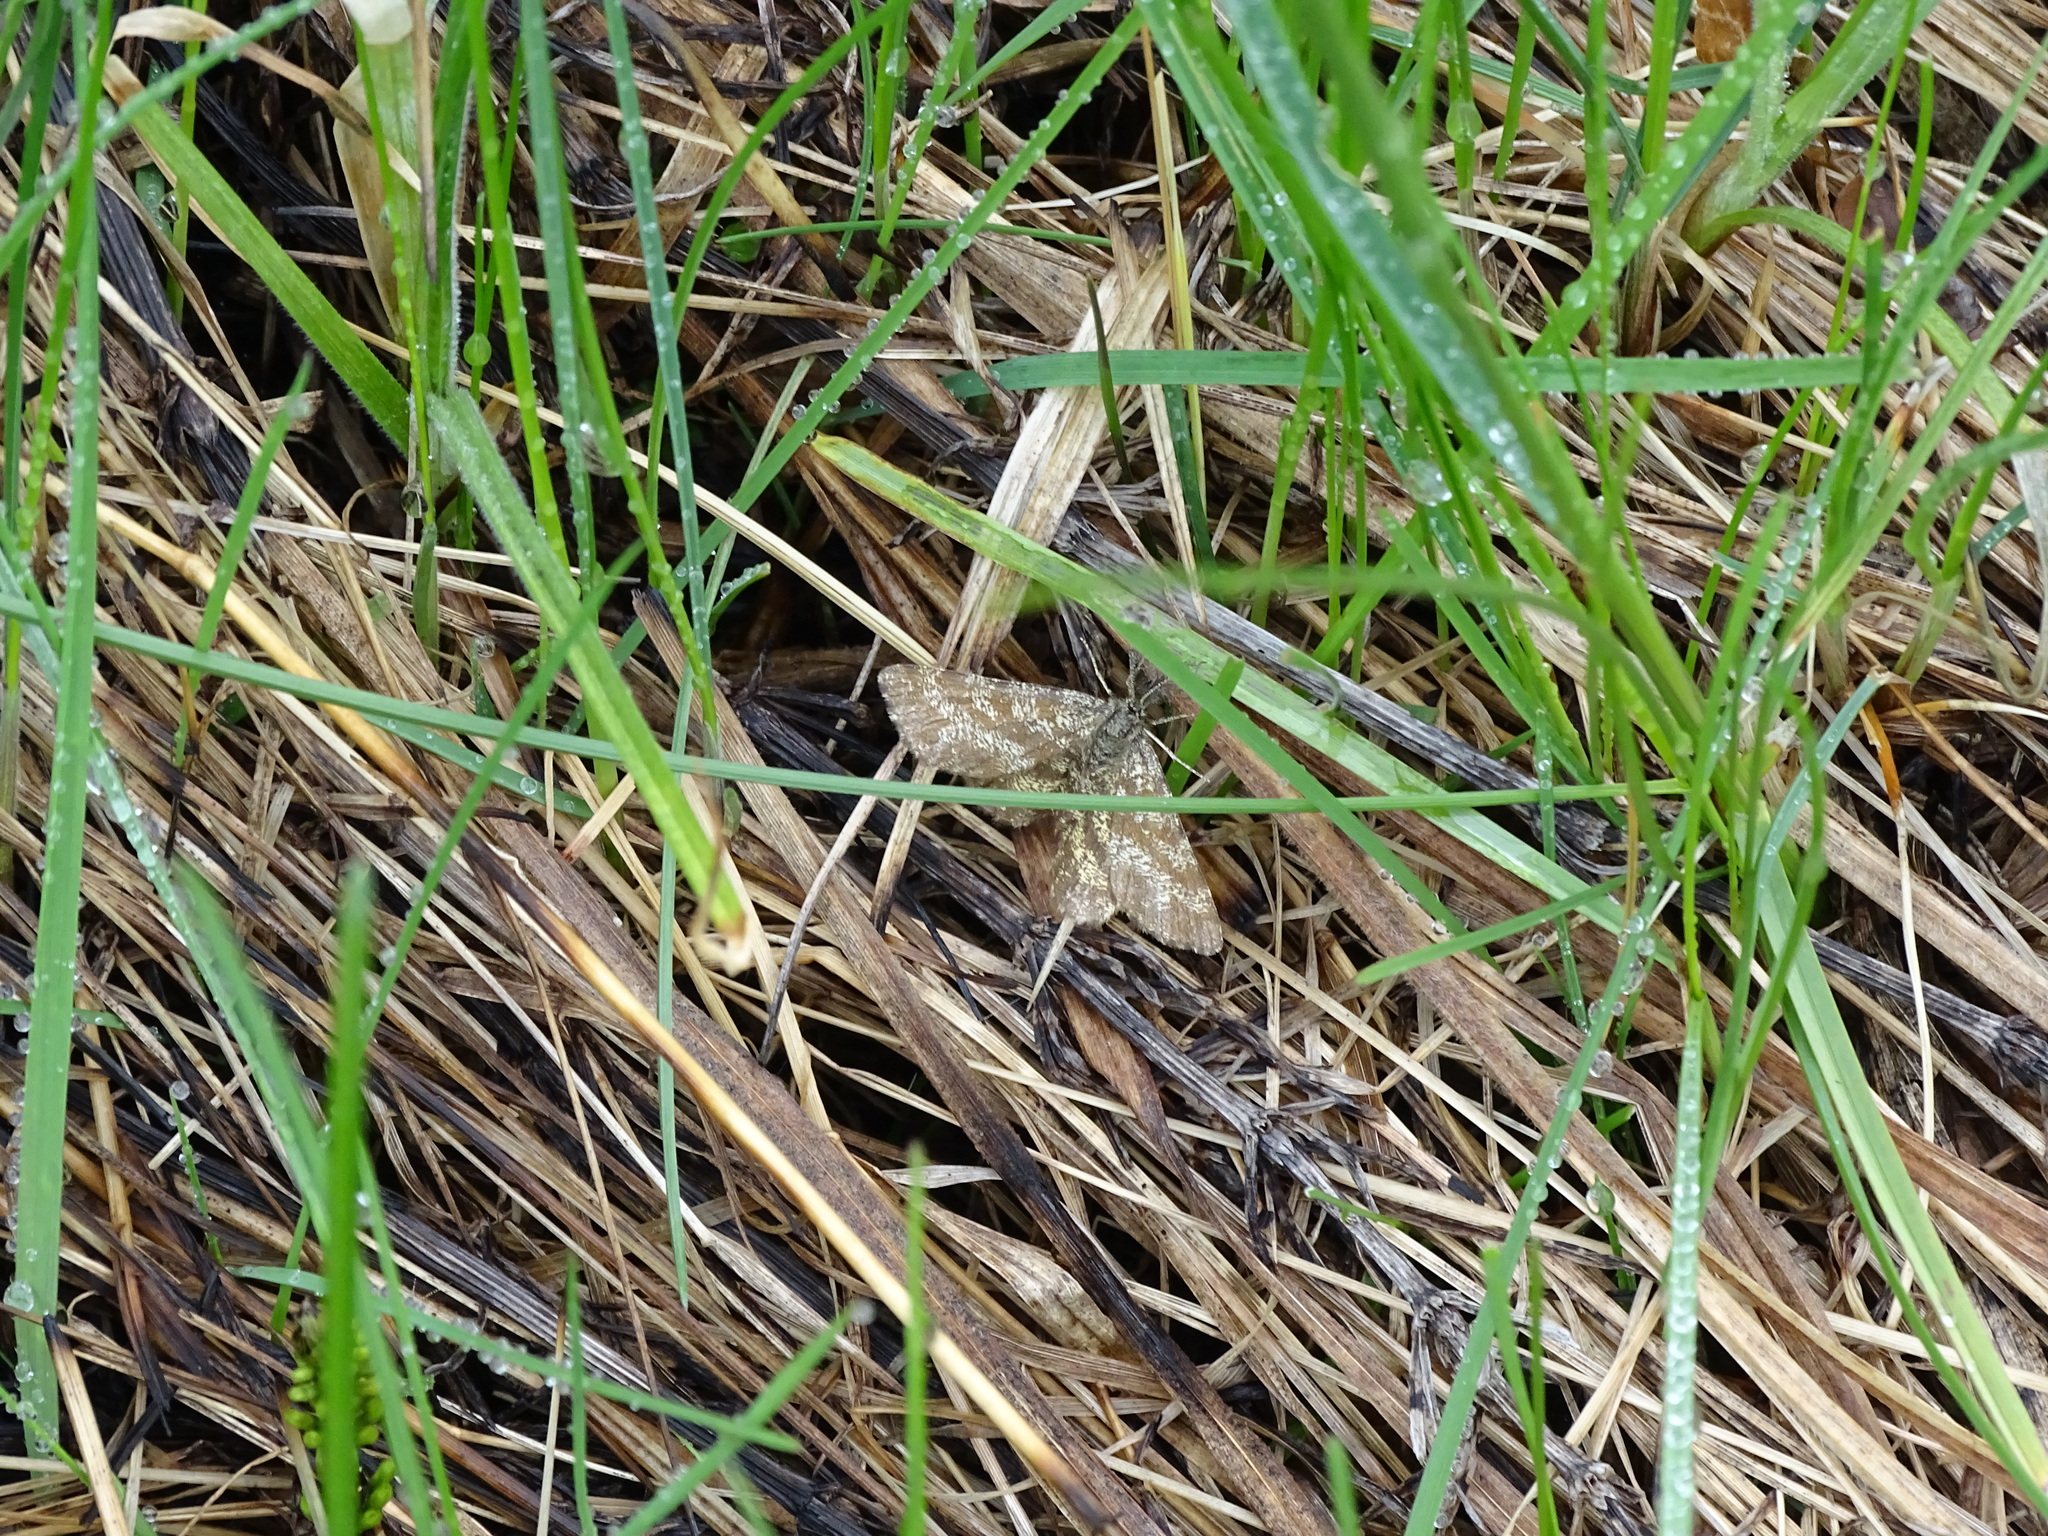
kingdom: Animalia
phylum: Arthropoda
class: Insecta
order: Lepidoptera
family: Geometridae
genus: Ematurga
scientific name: Ematurga atomaria
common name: Common heath
